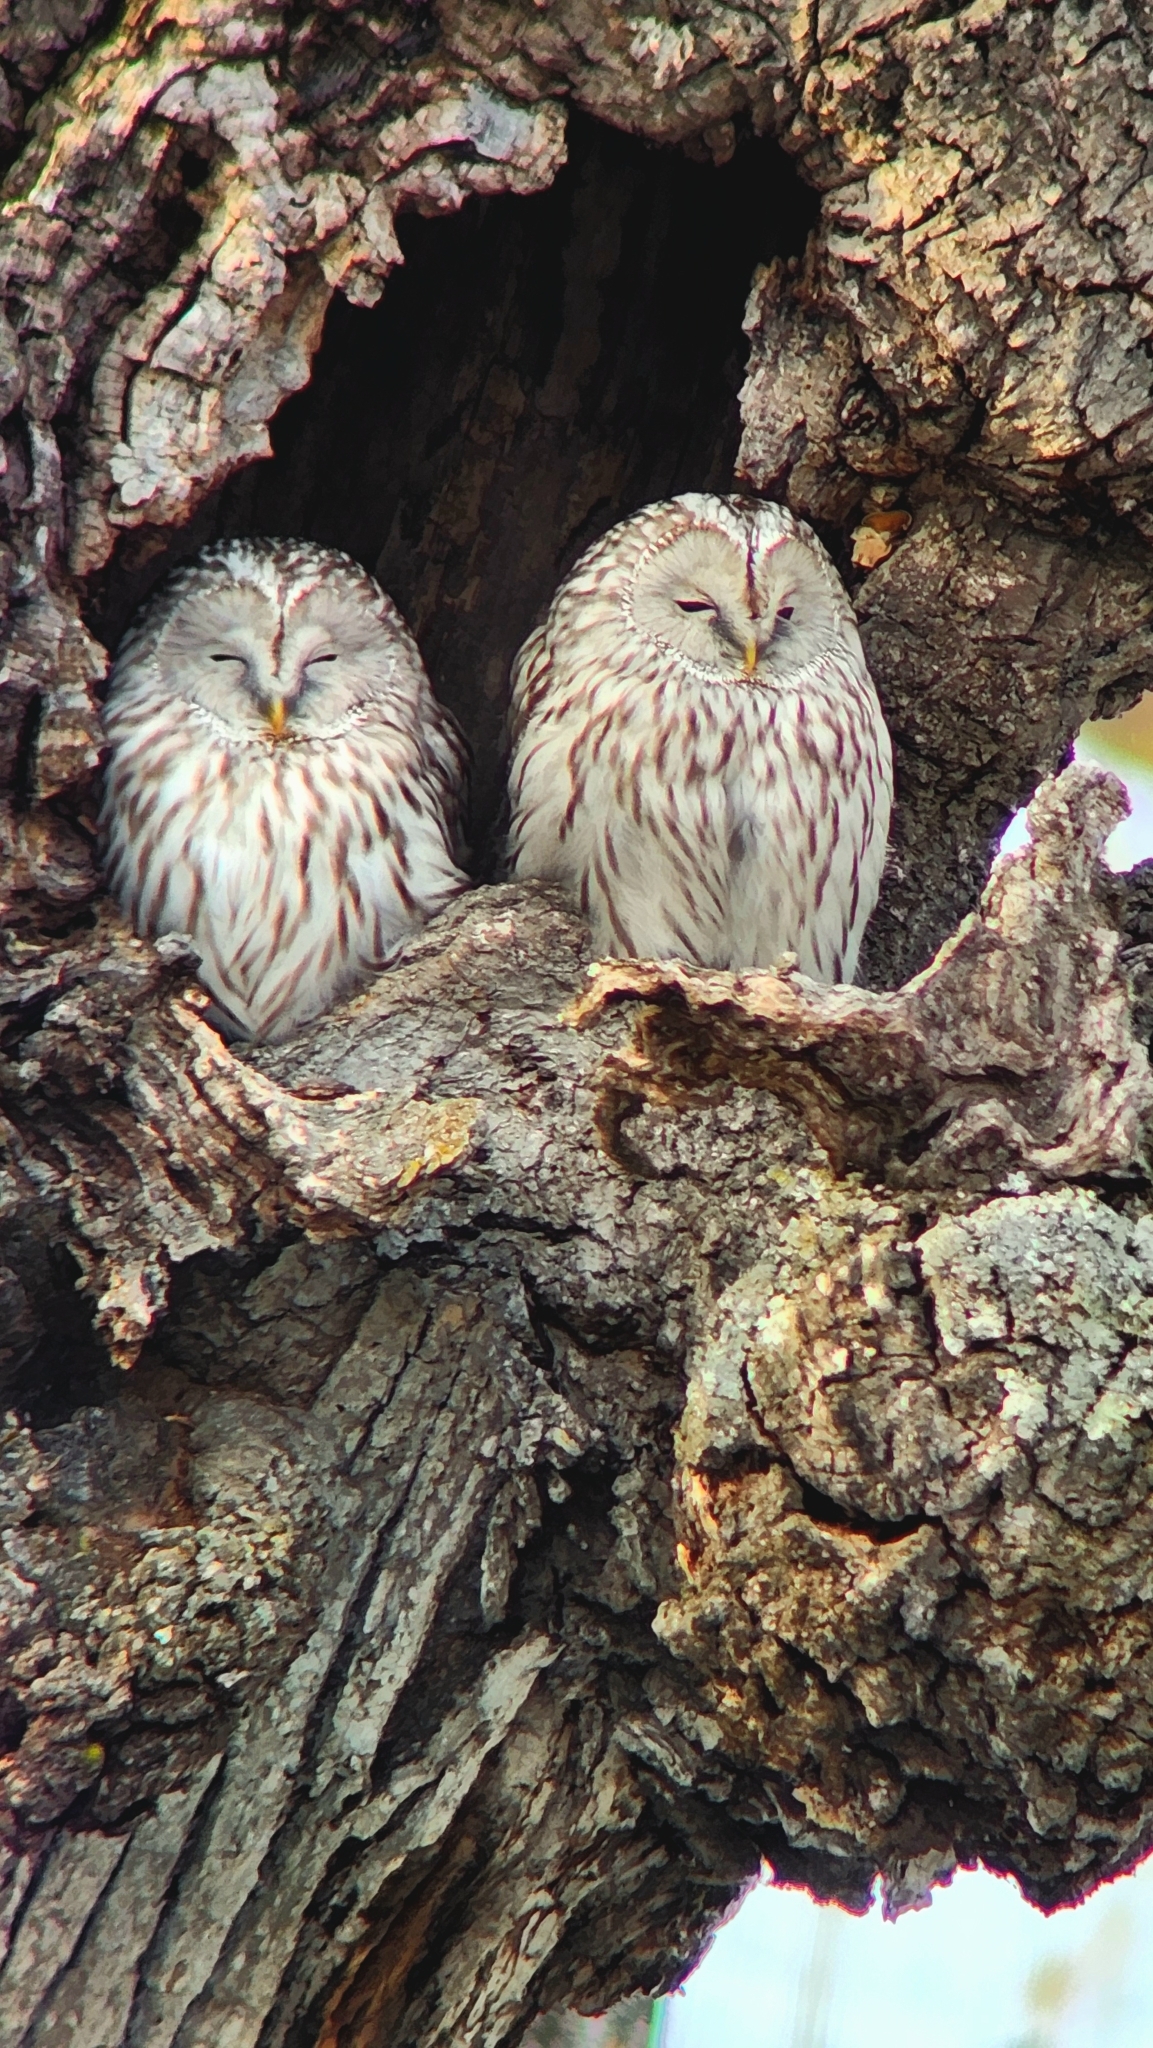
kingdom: Animalia
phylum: Chordata
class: Aves
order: Strigiformes
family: Strigidae
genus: Strix
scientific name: Strix uralensis
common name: Ural owl
